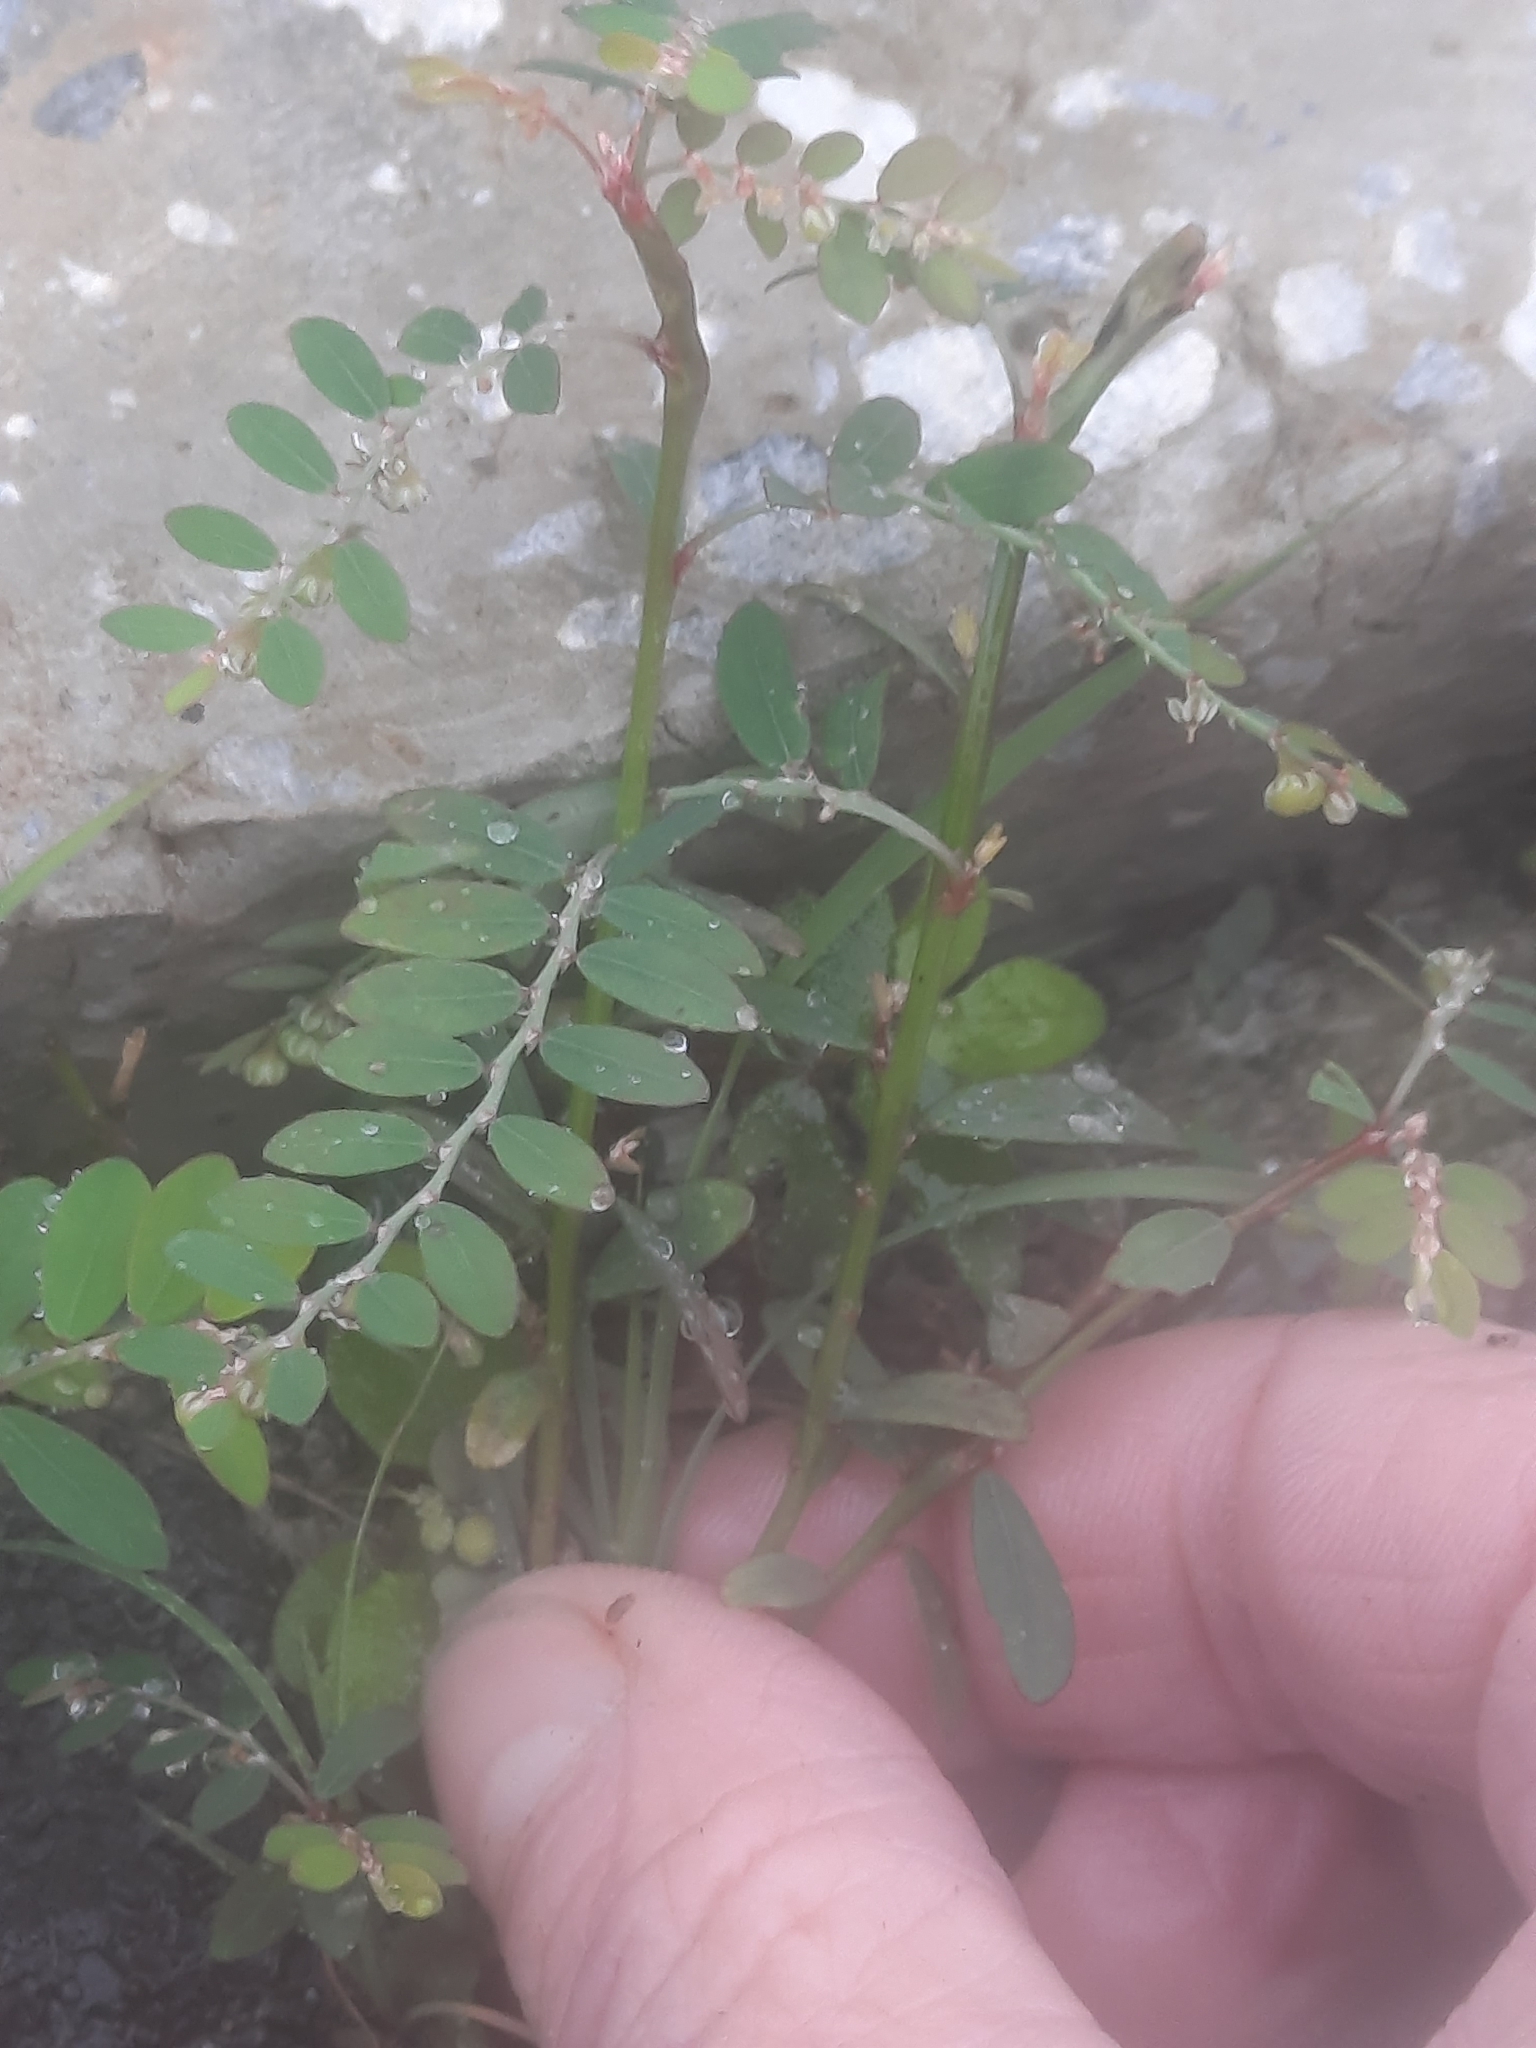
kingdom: Plantae
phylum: Tracheophyta
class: Magnoliopsida
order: Malpighiales
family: Phyllanthaceae
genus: Phyllanthus
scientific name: Phyllanthus debilis
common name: Niruri
